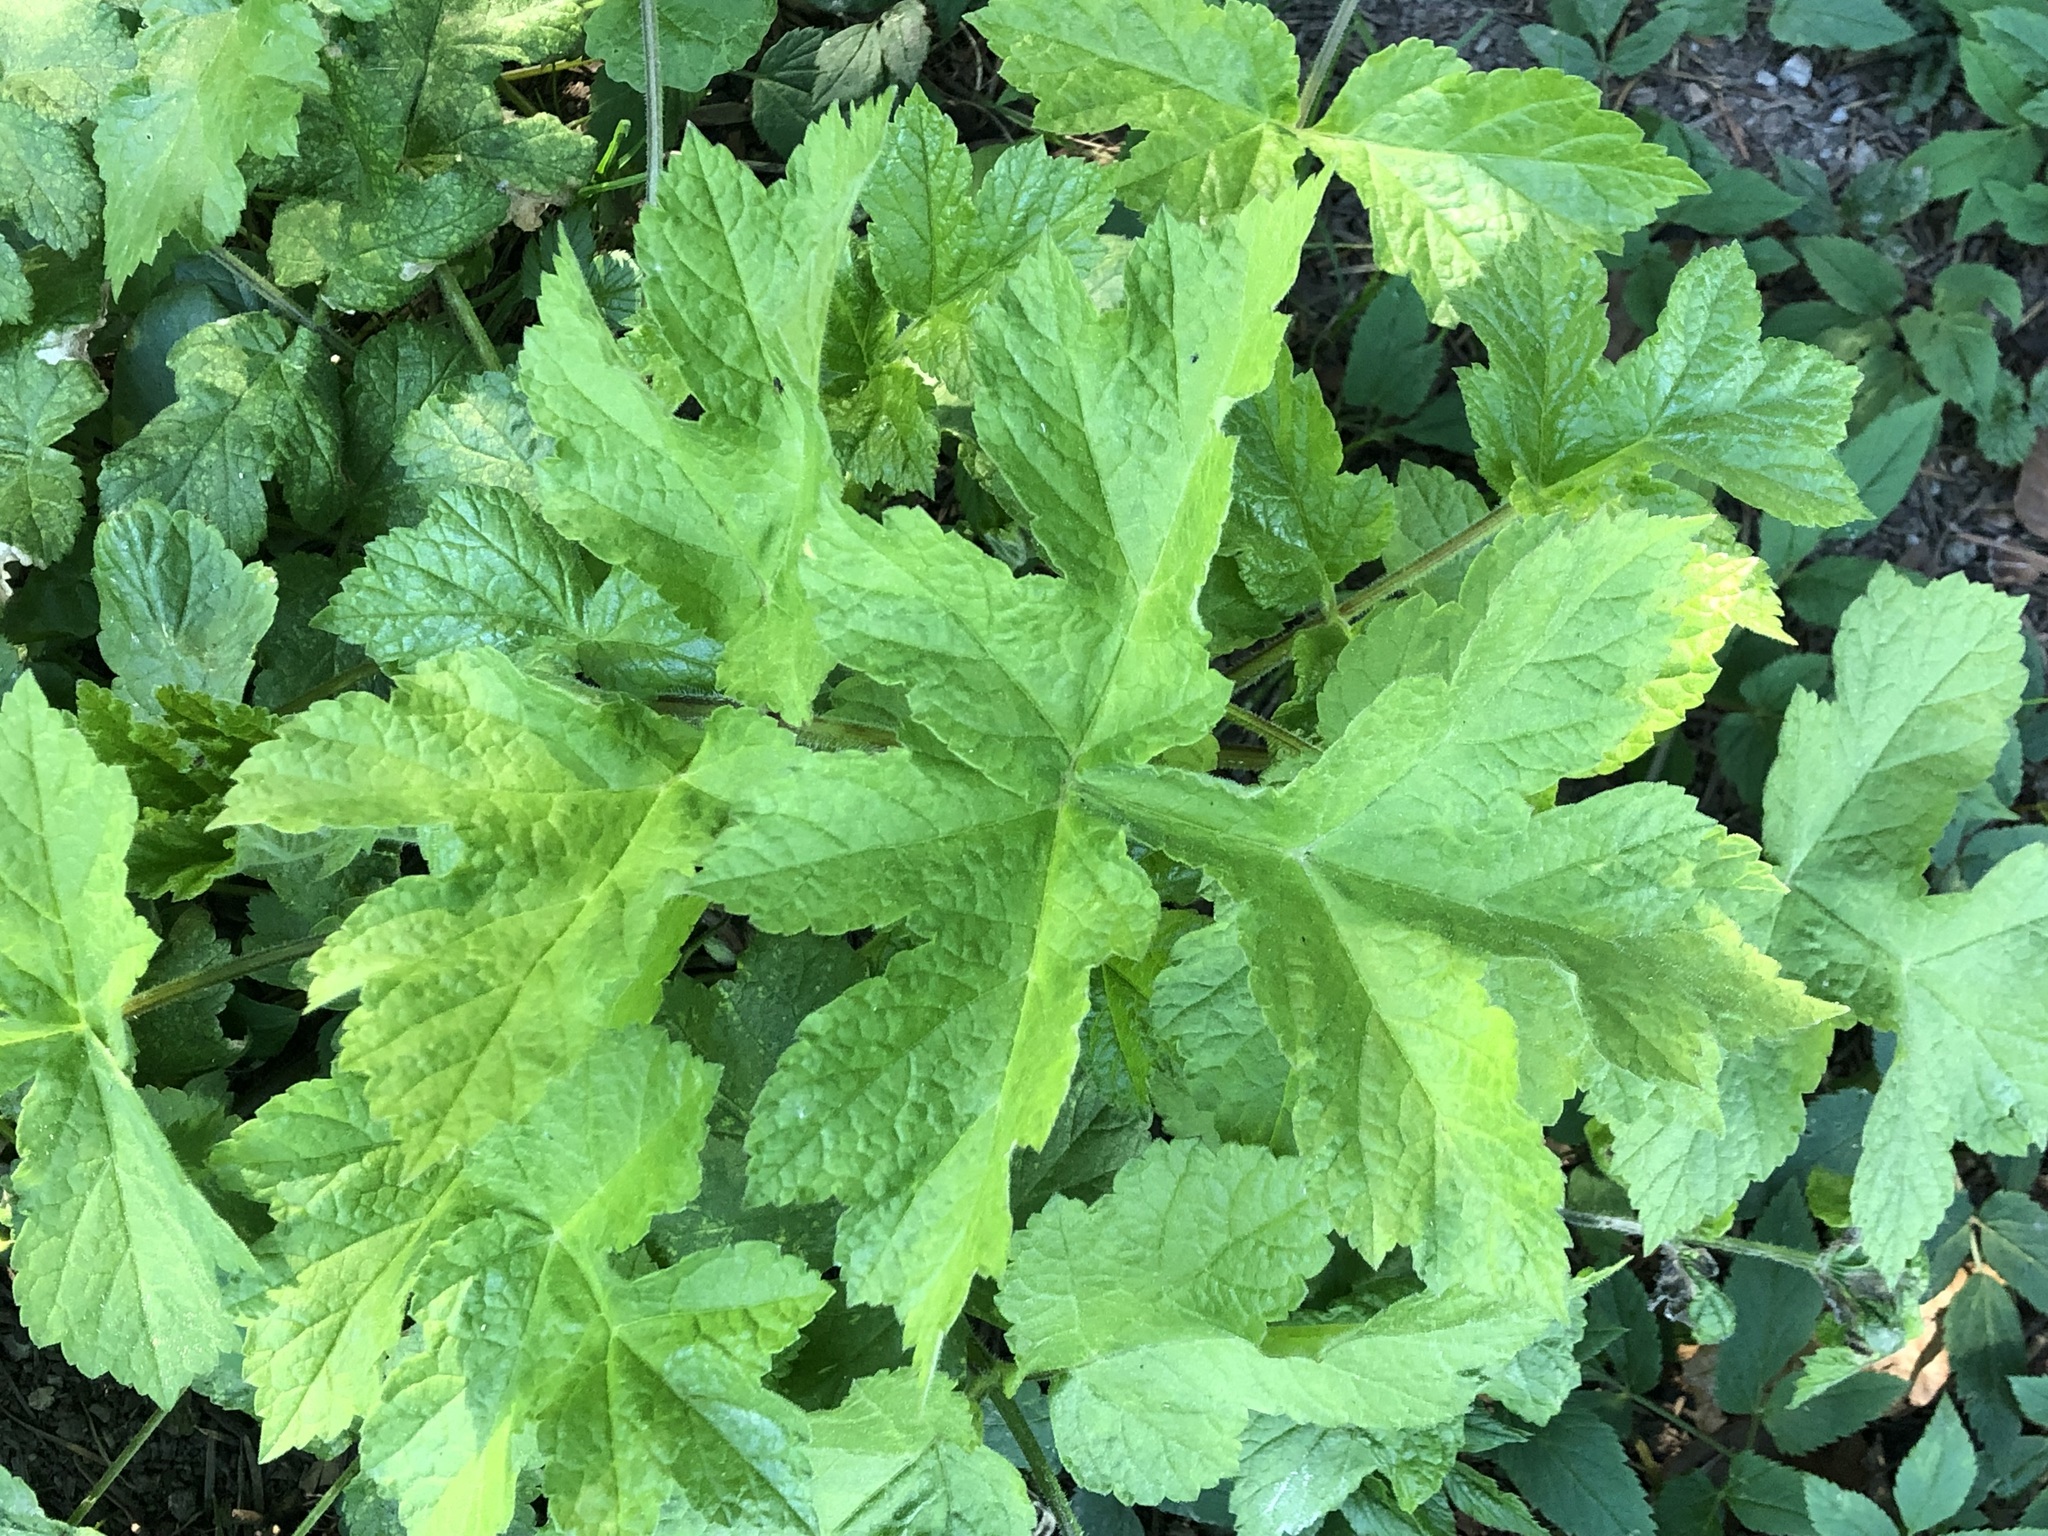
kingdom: Plantae
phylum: Tracheophyta
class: Magnoliopsida
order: Apiales
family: Apiaceae
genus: Heracleum
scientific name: Heracleum sphondylium
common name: Hogweed
